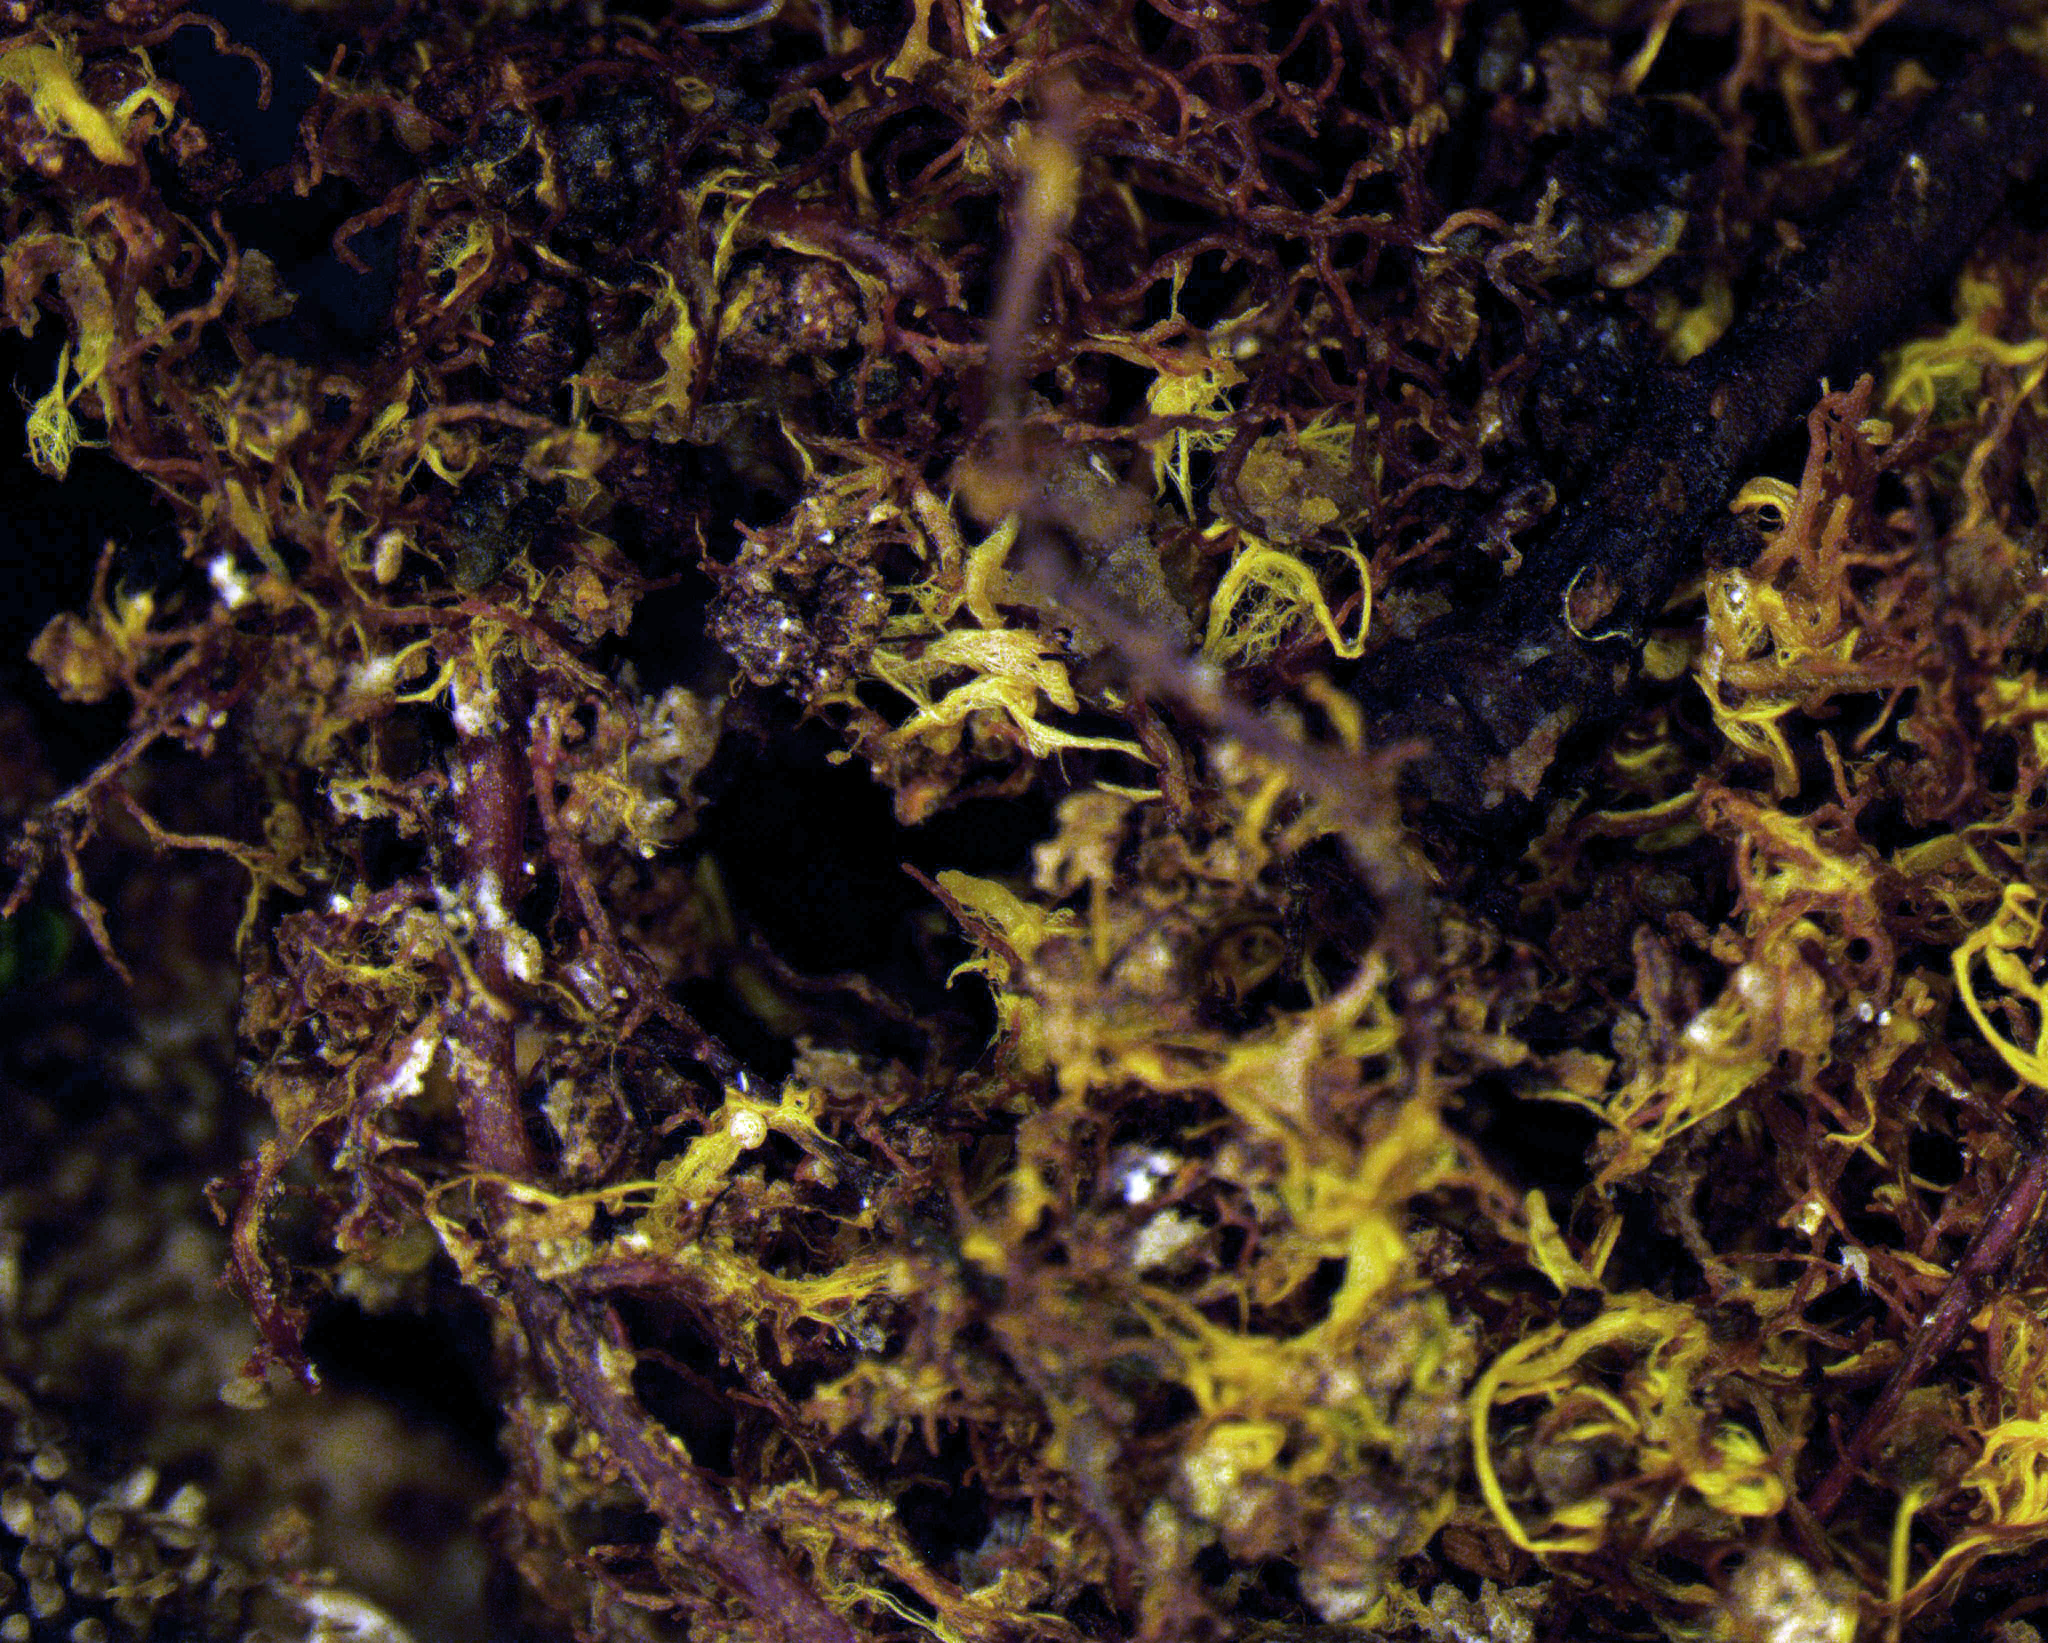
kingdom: Fungi
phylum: Basidiomycota
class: Agaricomycetes
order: Thelephorales
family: Thelephoraceae
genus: Phellodon
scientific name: Phellodon plicatus
